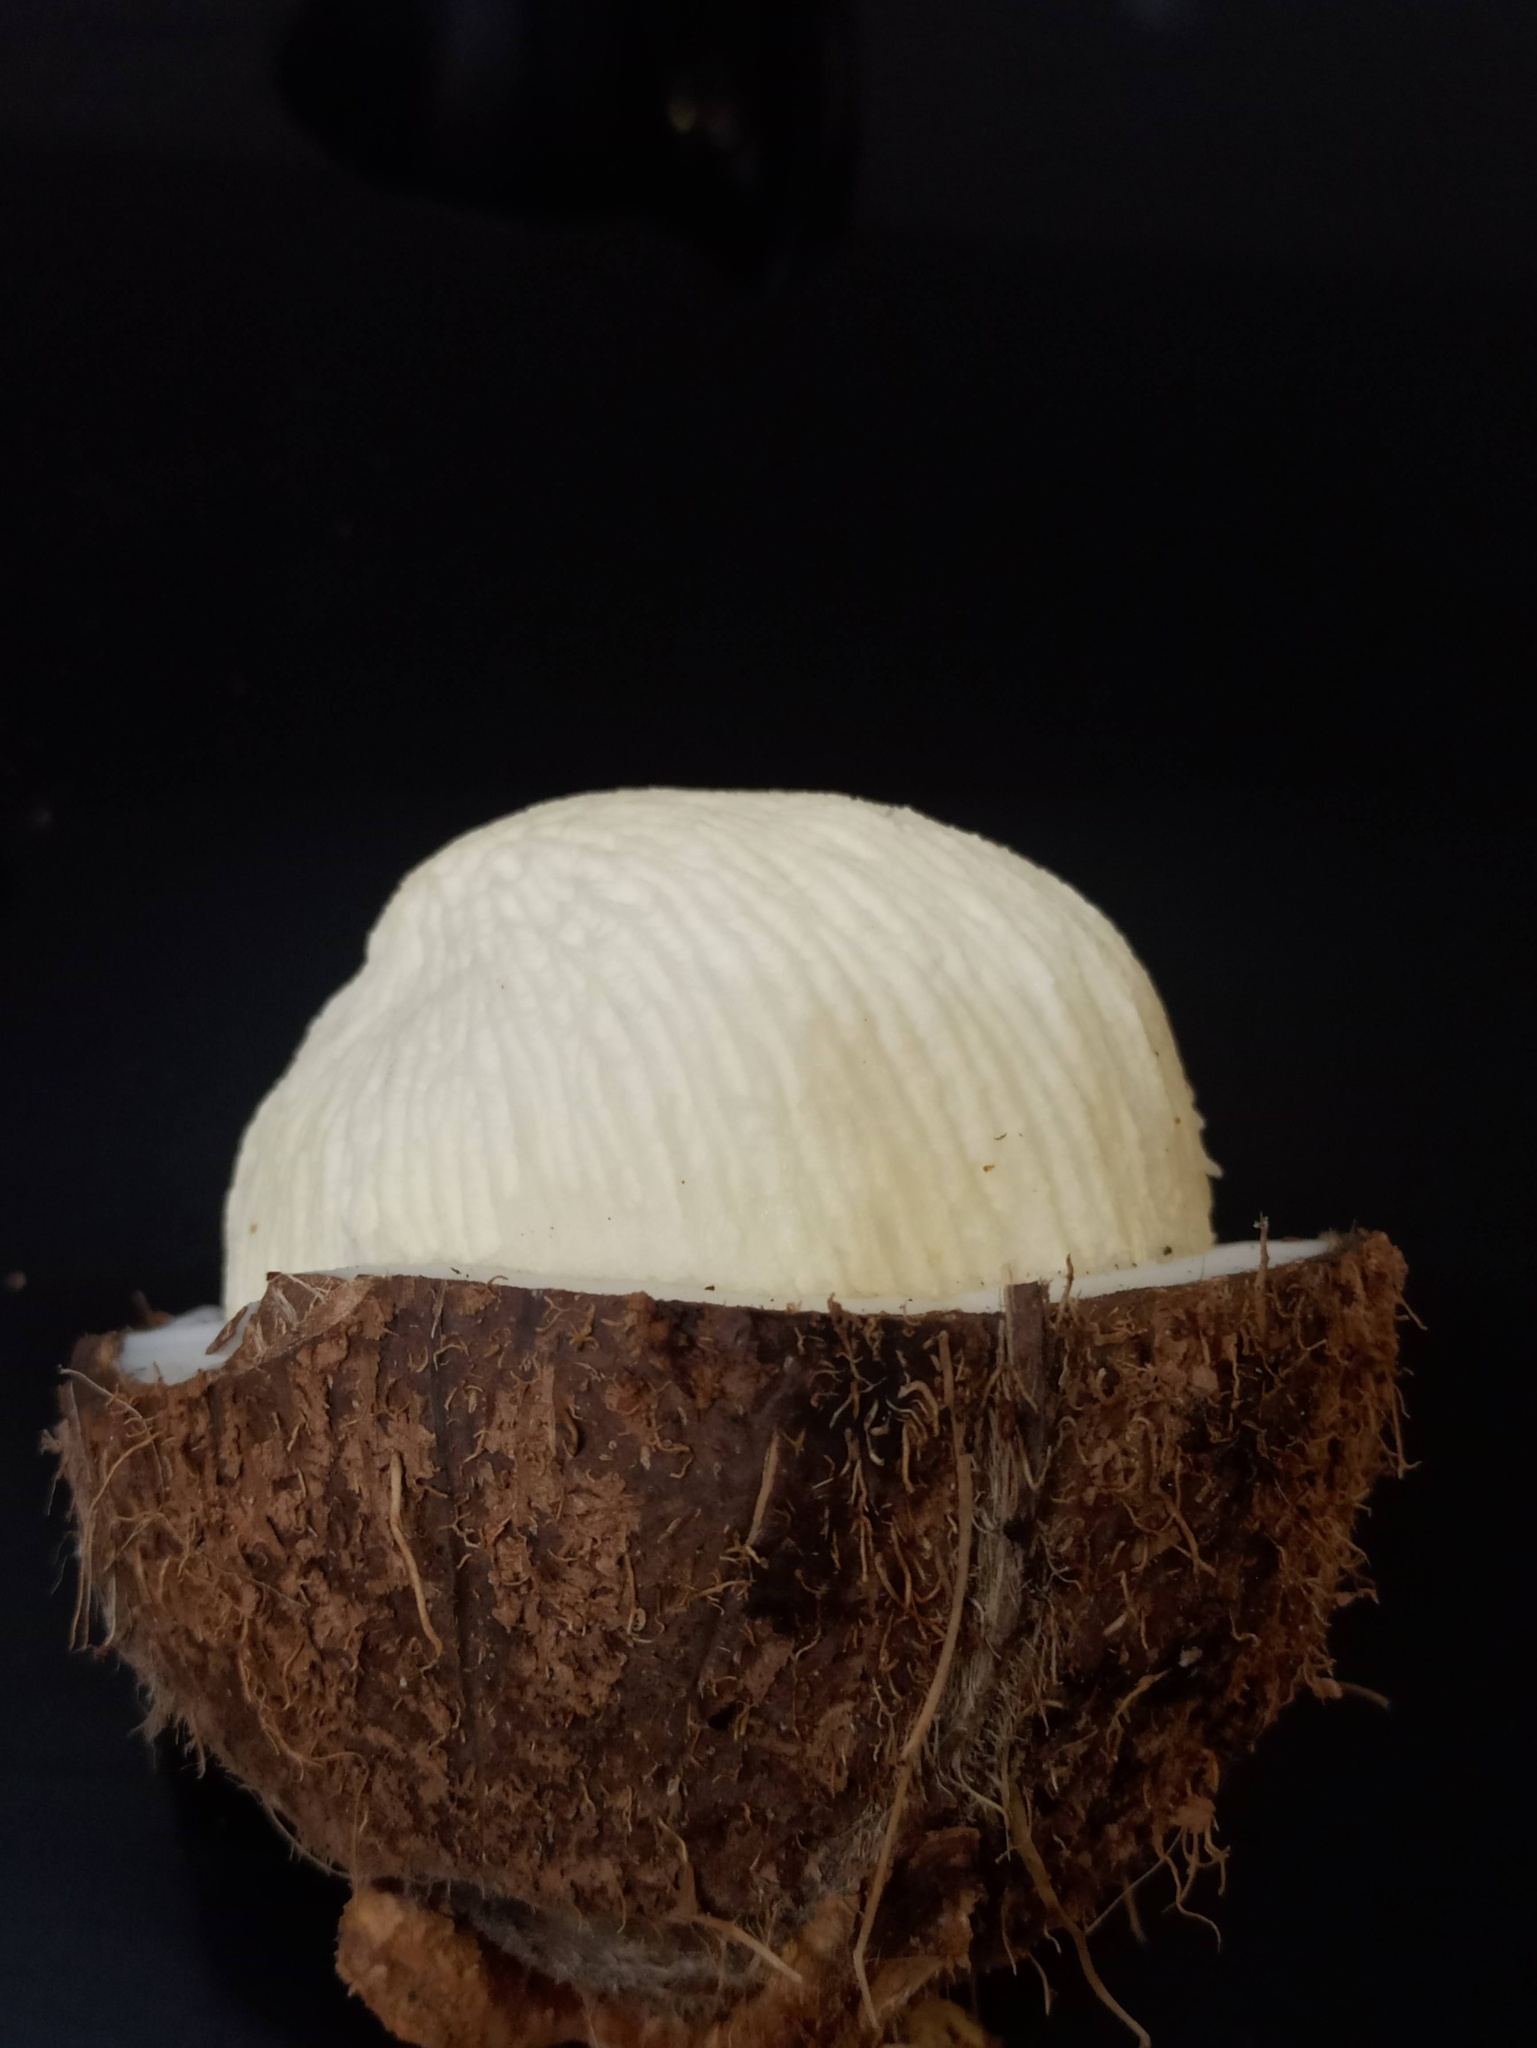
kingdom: Plantae
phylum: Tracheophyta
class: Liliopsida
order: Arecales
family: Arecaceae
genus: Cocos
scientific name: Cocos nucifera
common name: Coconut palm
